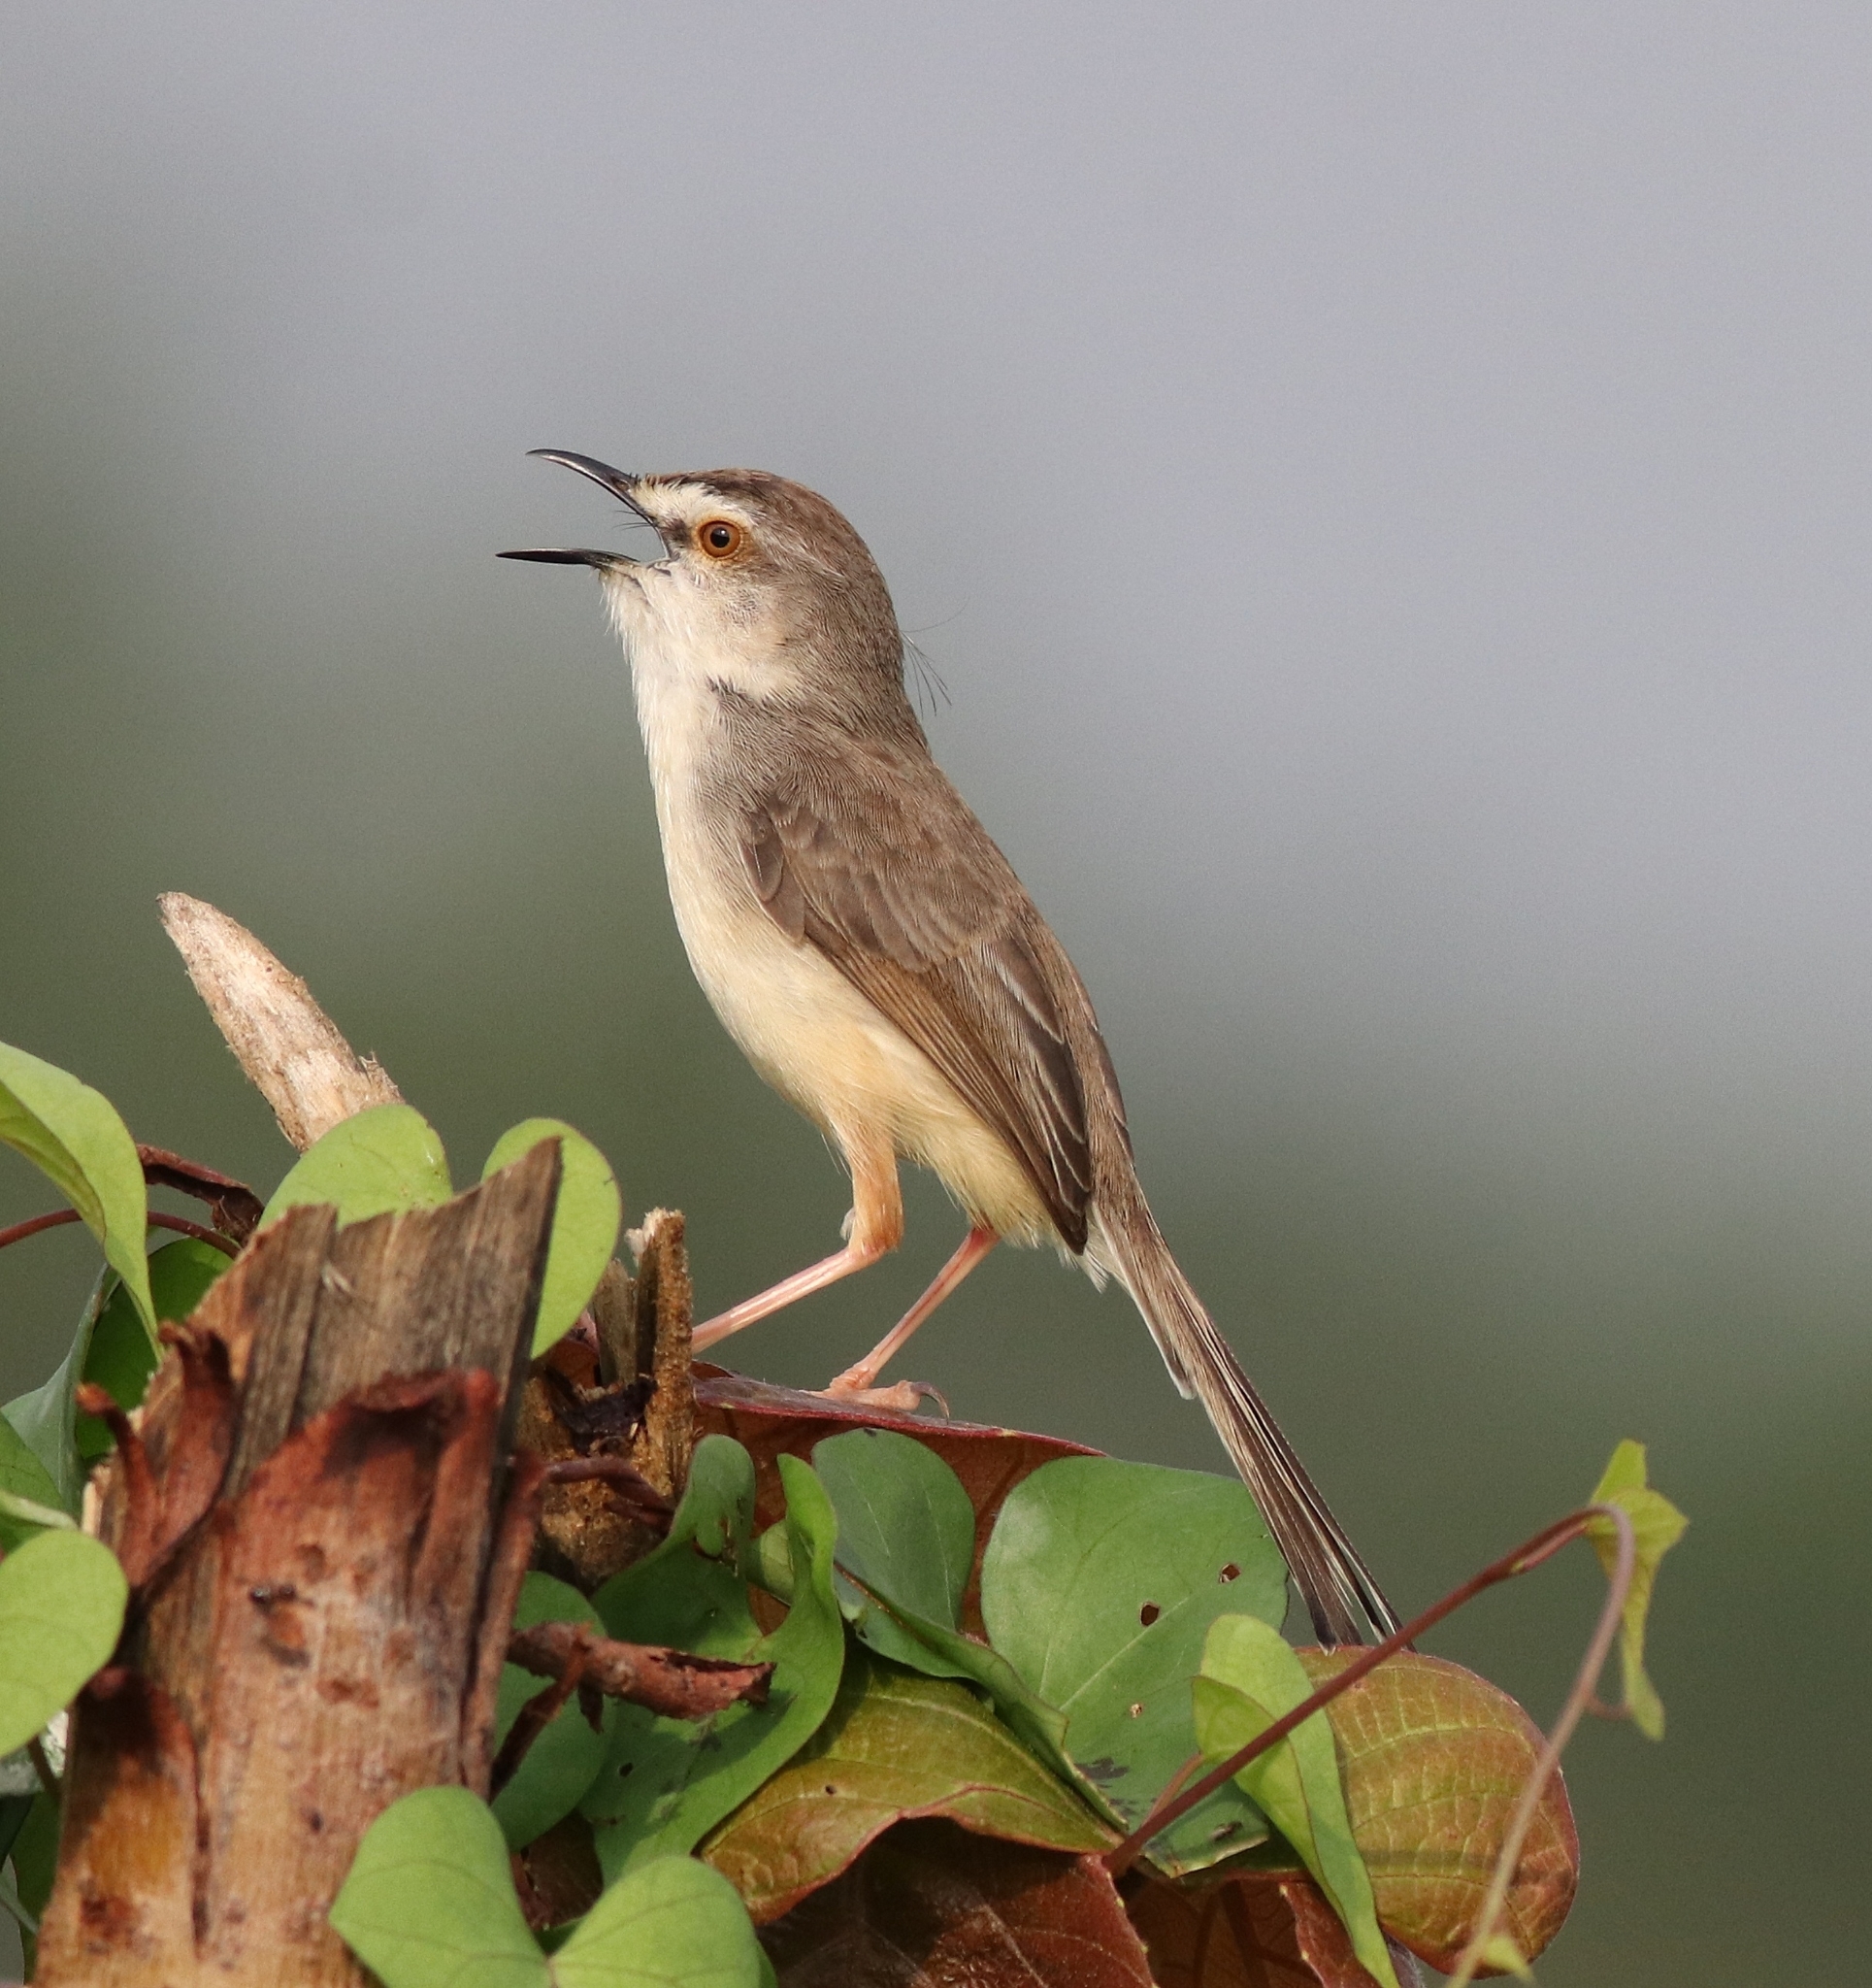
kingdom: Animalia
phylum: Chordata
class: Aves
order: Passeriformes
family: Cisticolidae
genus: Prinia
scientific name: Prinia inornata
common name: Plain prinia
